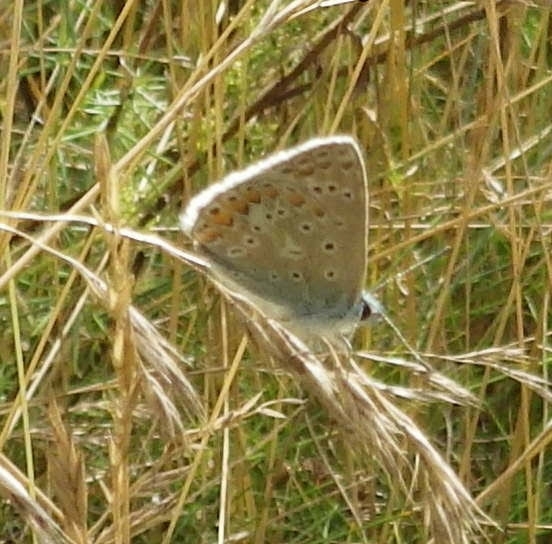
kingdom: Animalia
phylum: Arthropoda
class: Insecta
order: Lepidoptera
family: Lycaenidae
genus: Polyommatus
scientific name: Polyommatus icarus
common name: Common blue
